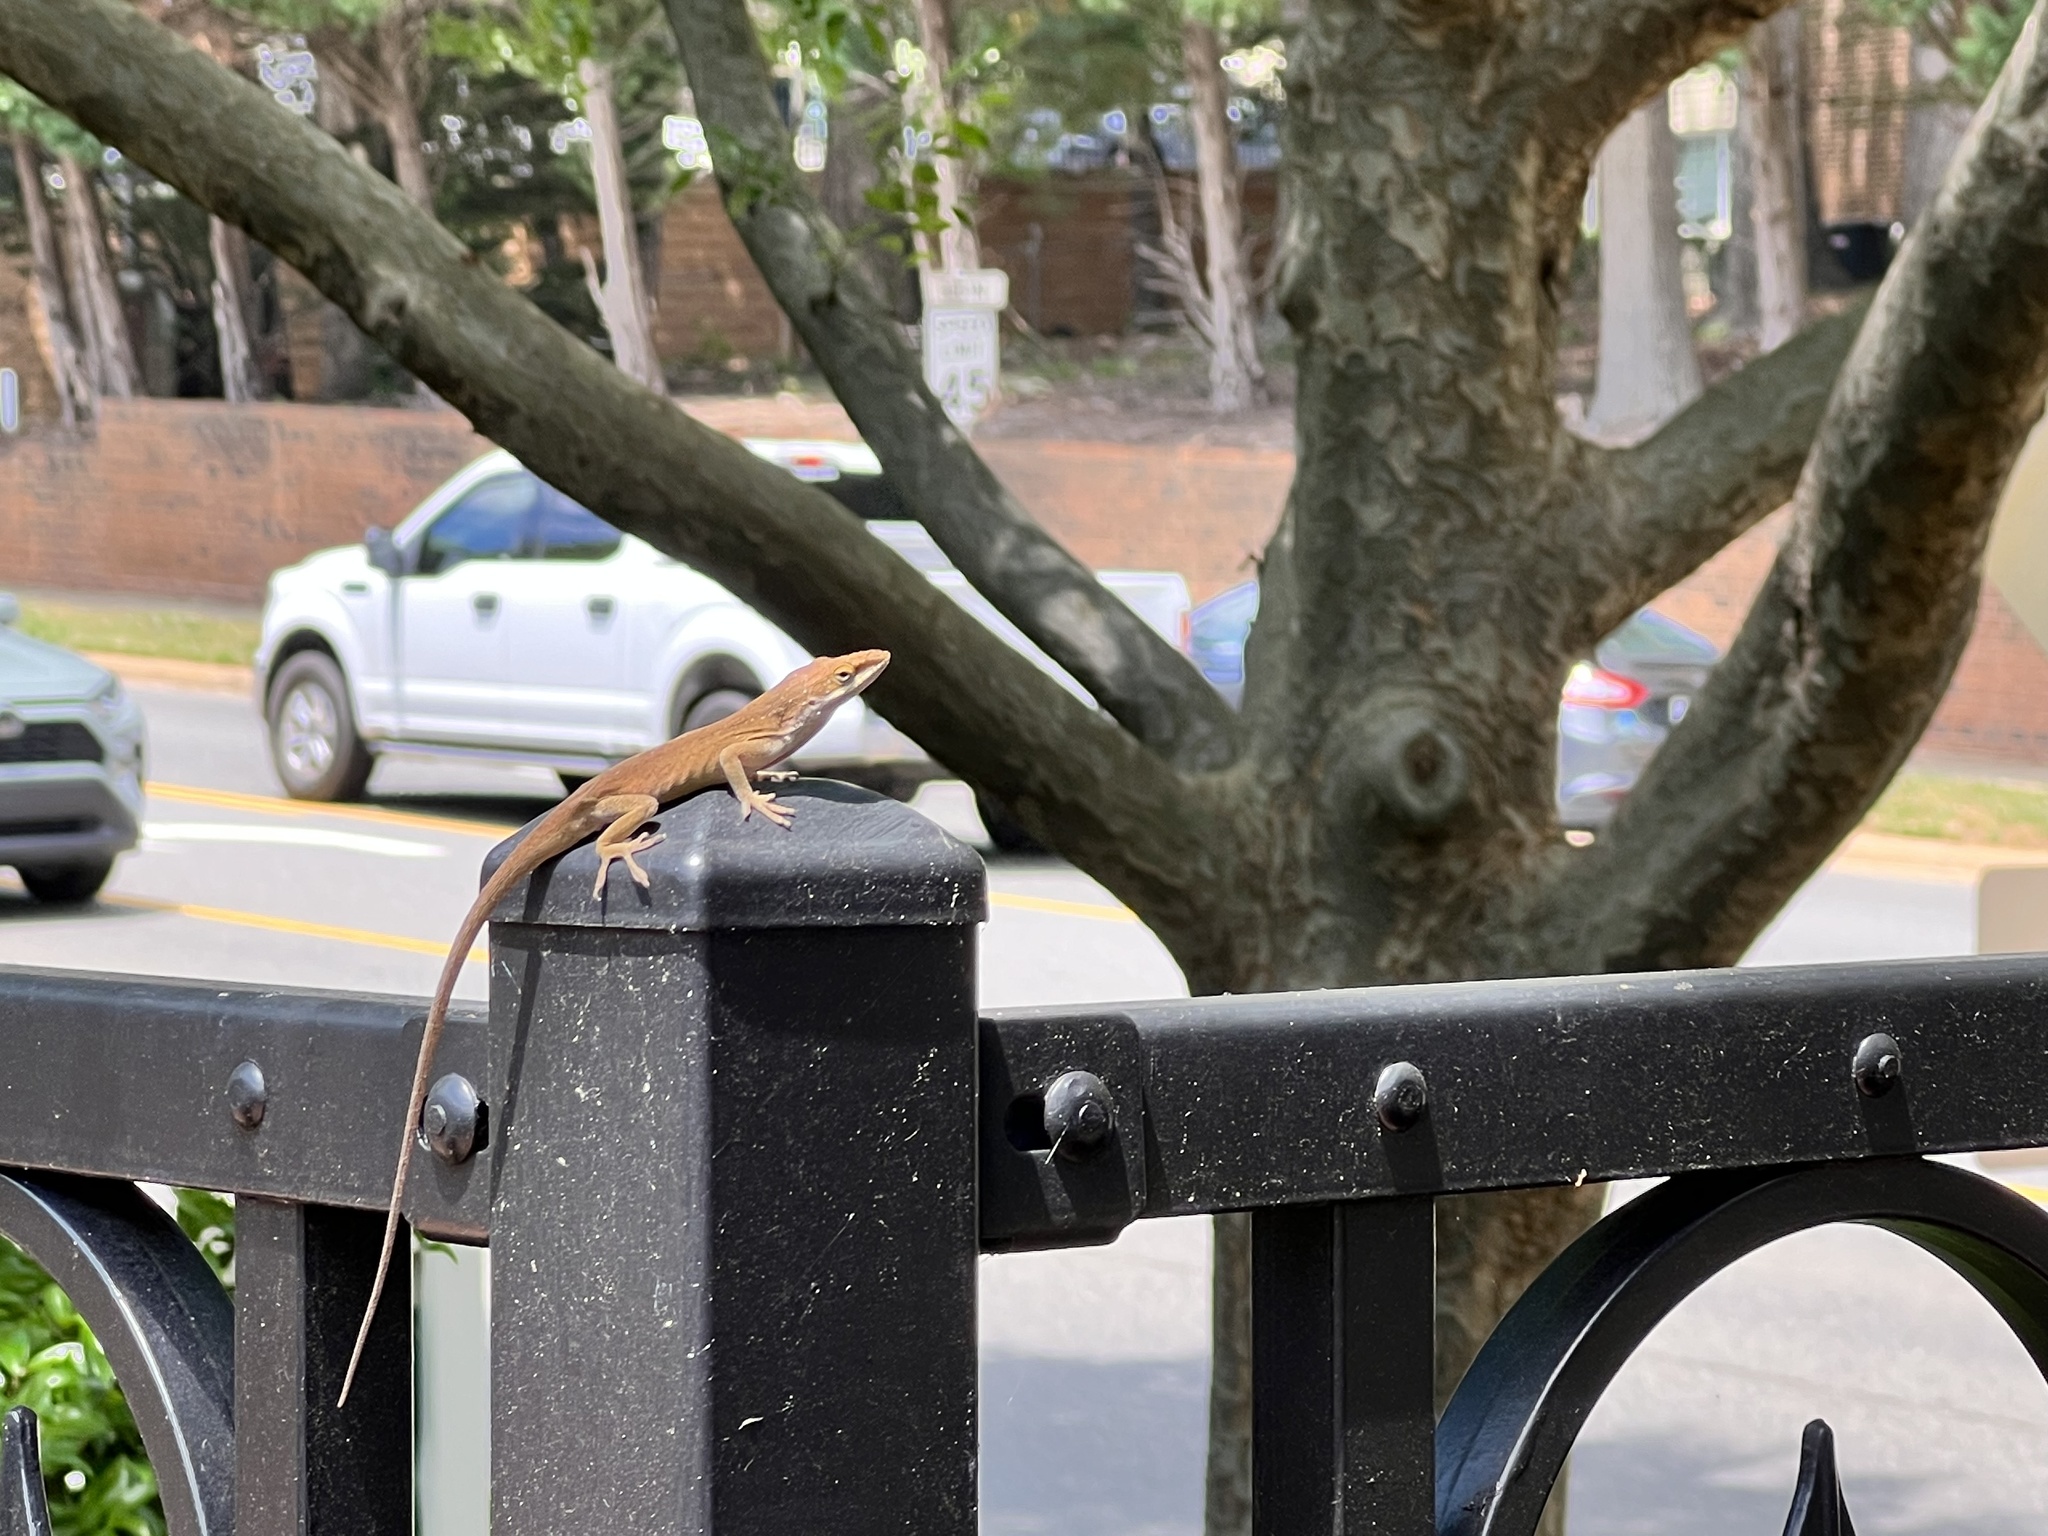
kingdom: Animalia
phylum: Chordata
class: Squamata
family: Dactyloidae
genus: Anolis
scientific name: Anolis carolinensis
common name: Green anole
